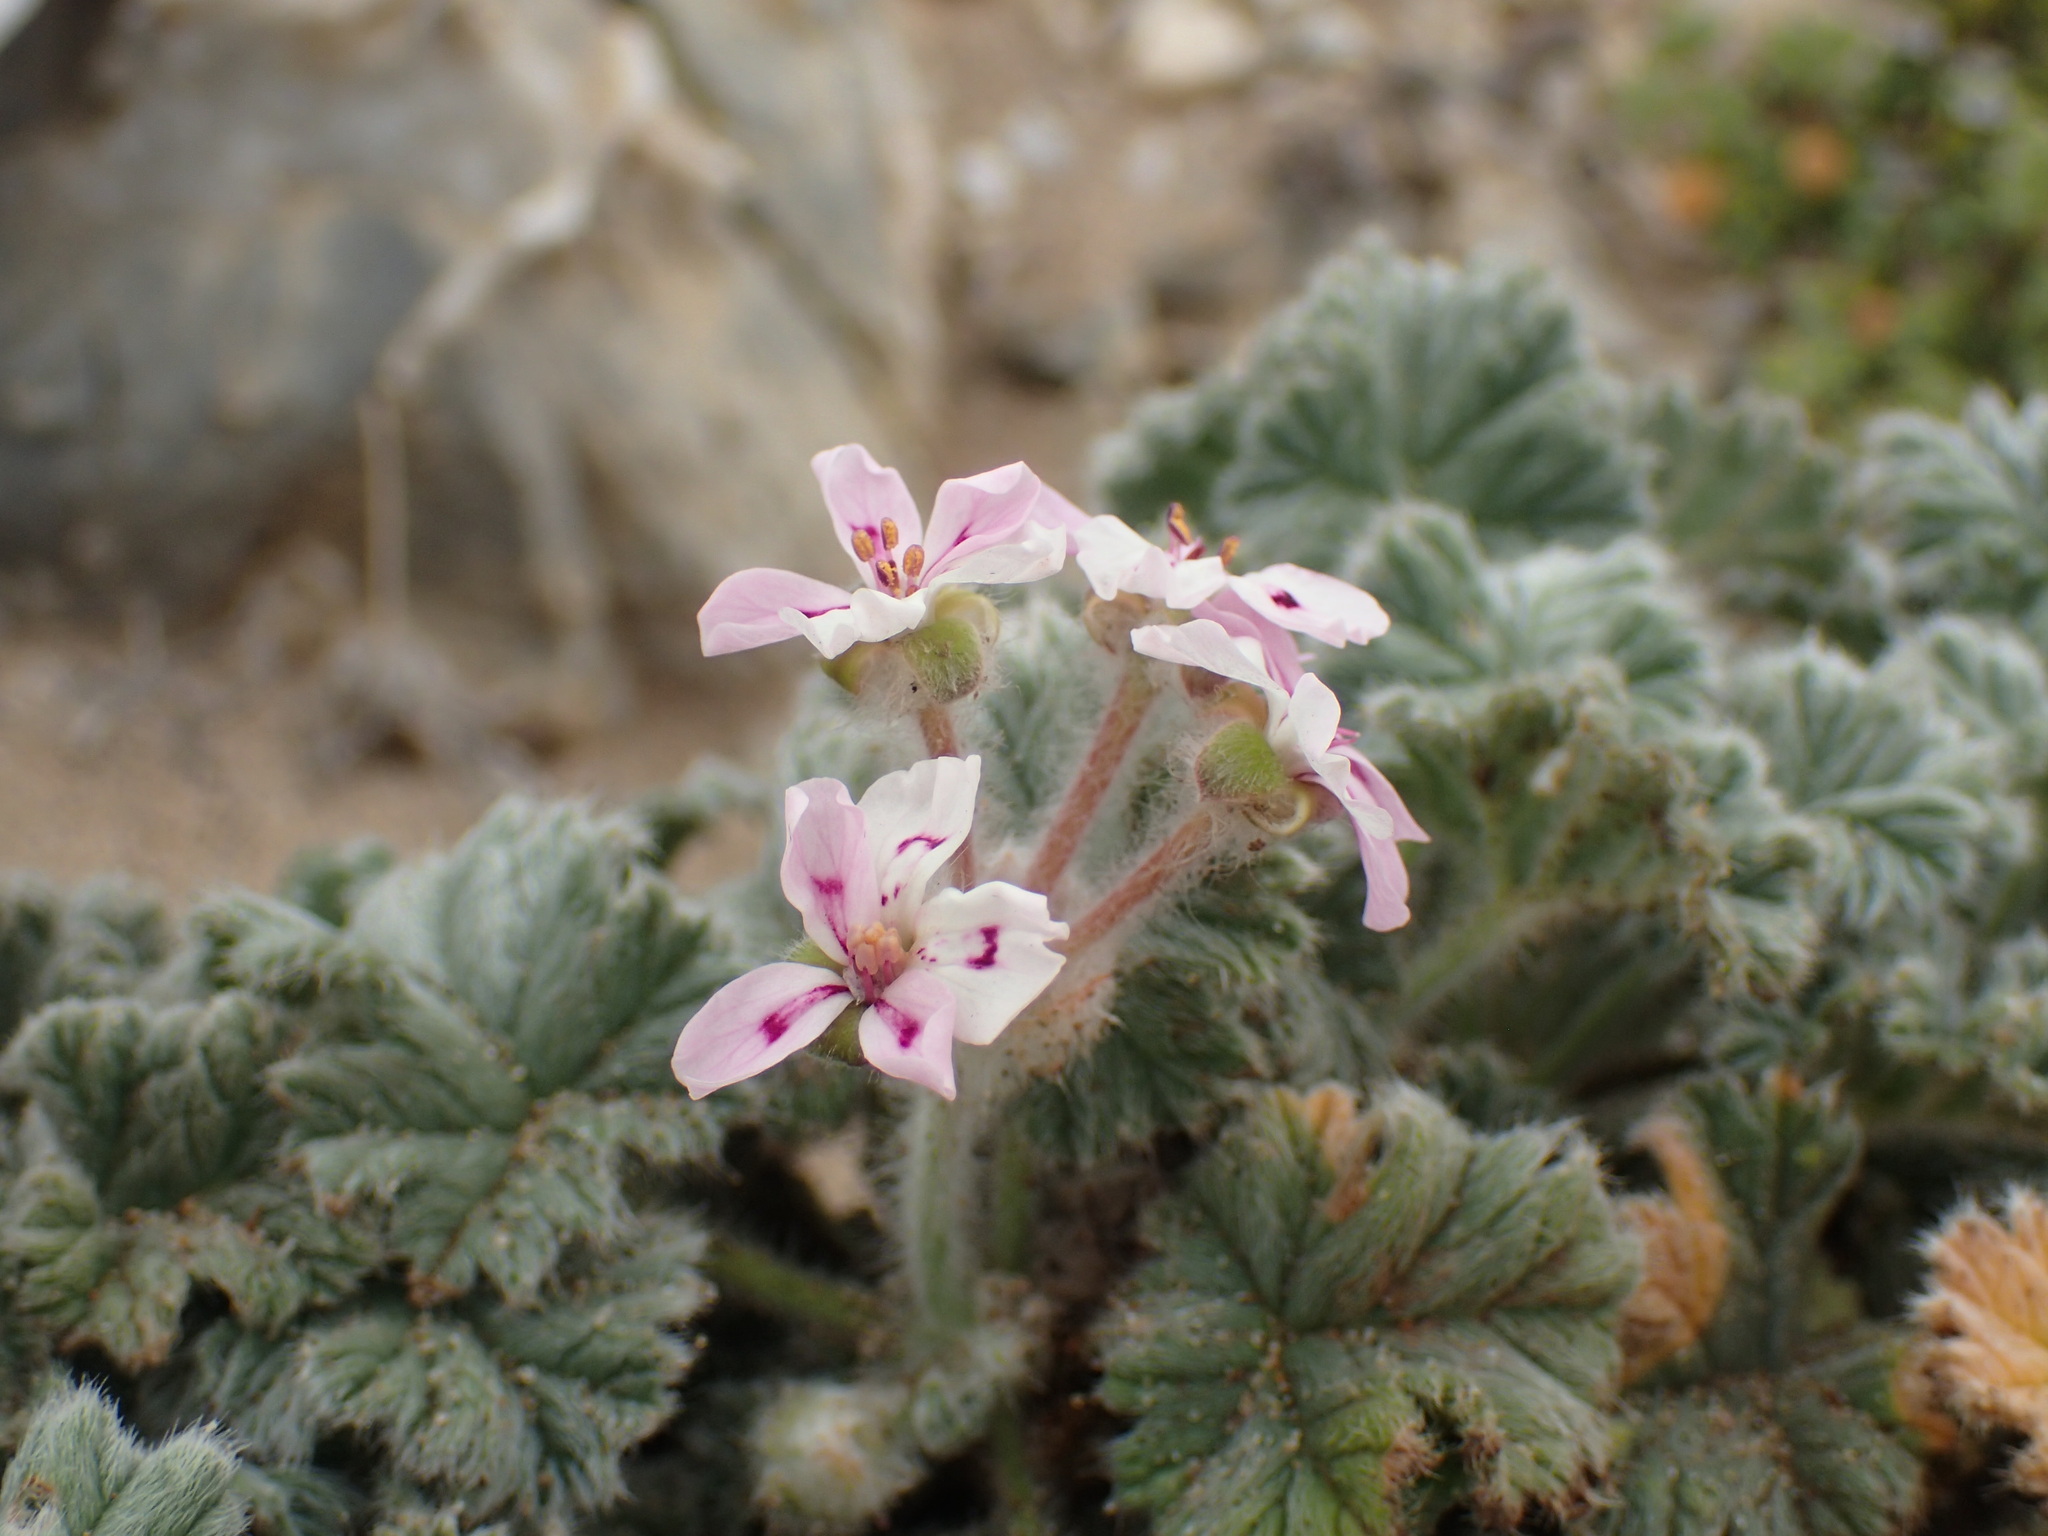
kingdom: Plantae
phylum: Tracheophyta
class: Magnoliopsida
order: Geraniales
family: Geraniaceae
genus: Pelargonium
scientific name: Pelargonium cortusifolium
